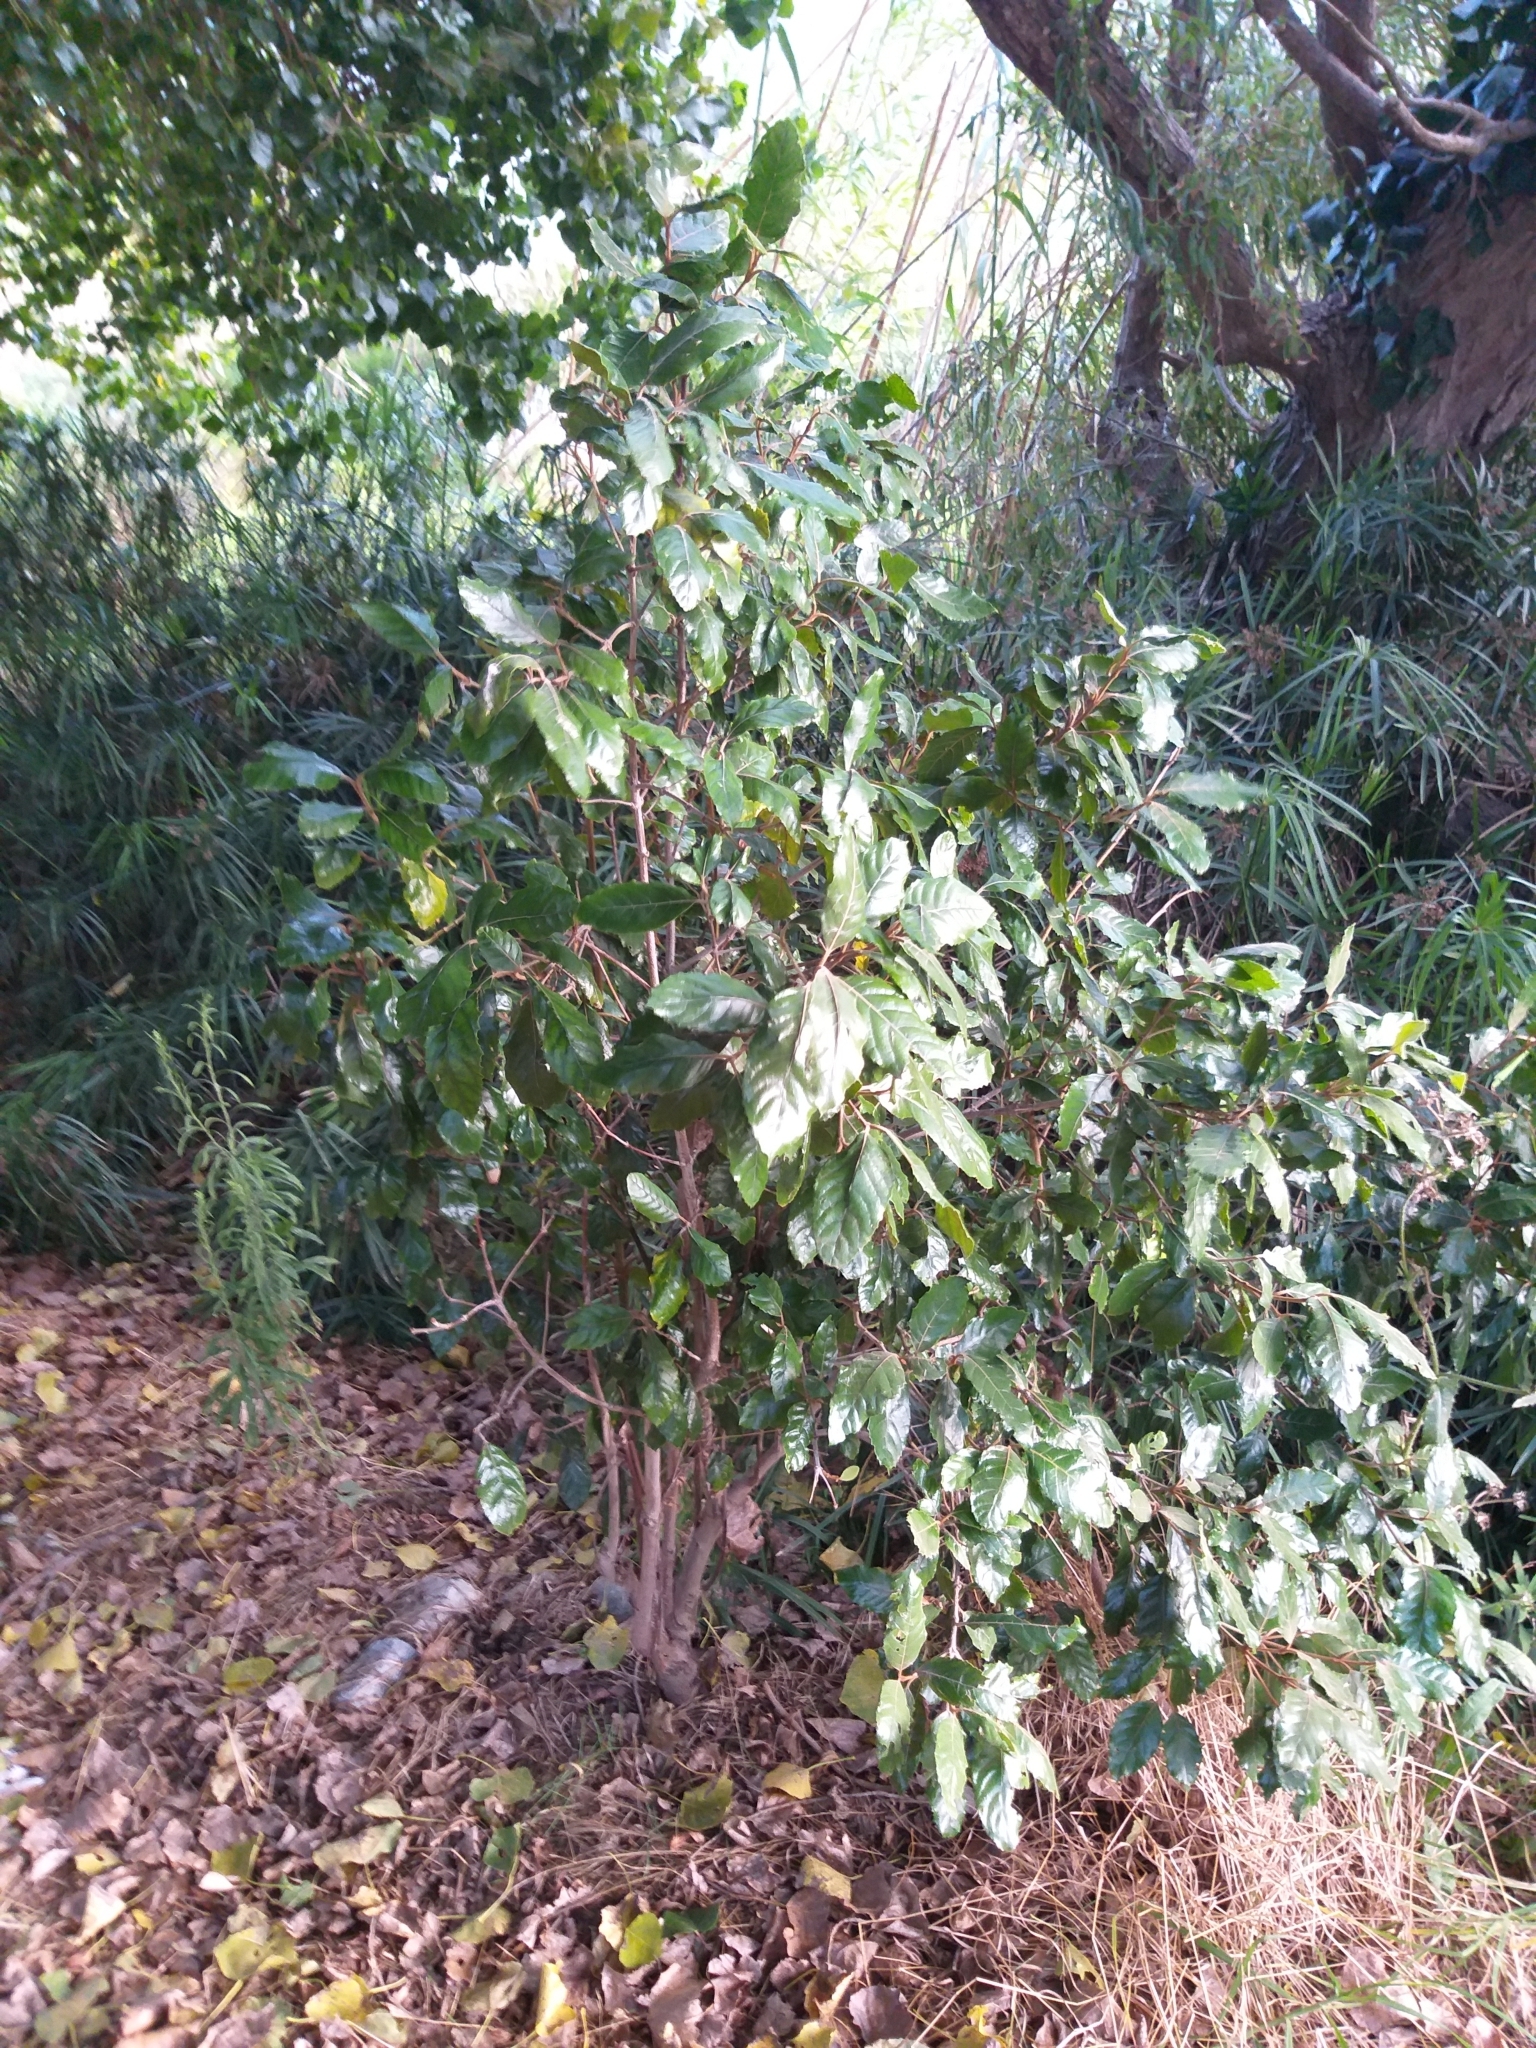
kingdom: Plantae
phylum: Tracheophyta
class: Magnoliopsida
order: Cornales
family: Curtisiaceae
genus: Curtisia
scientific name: Curtisia dentata
